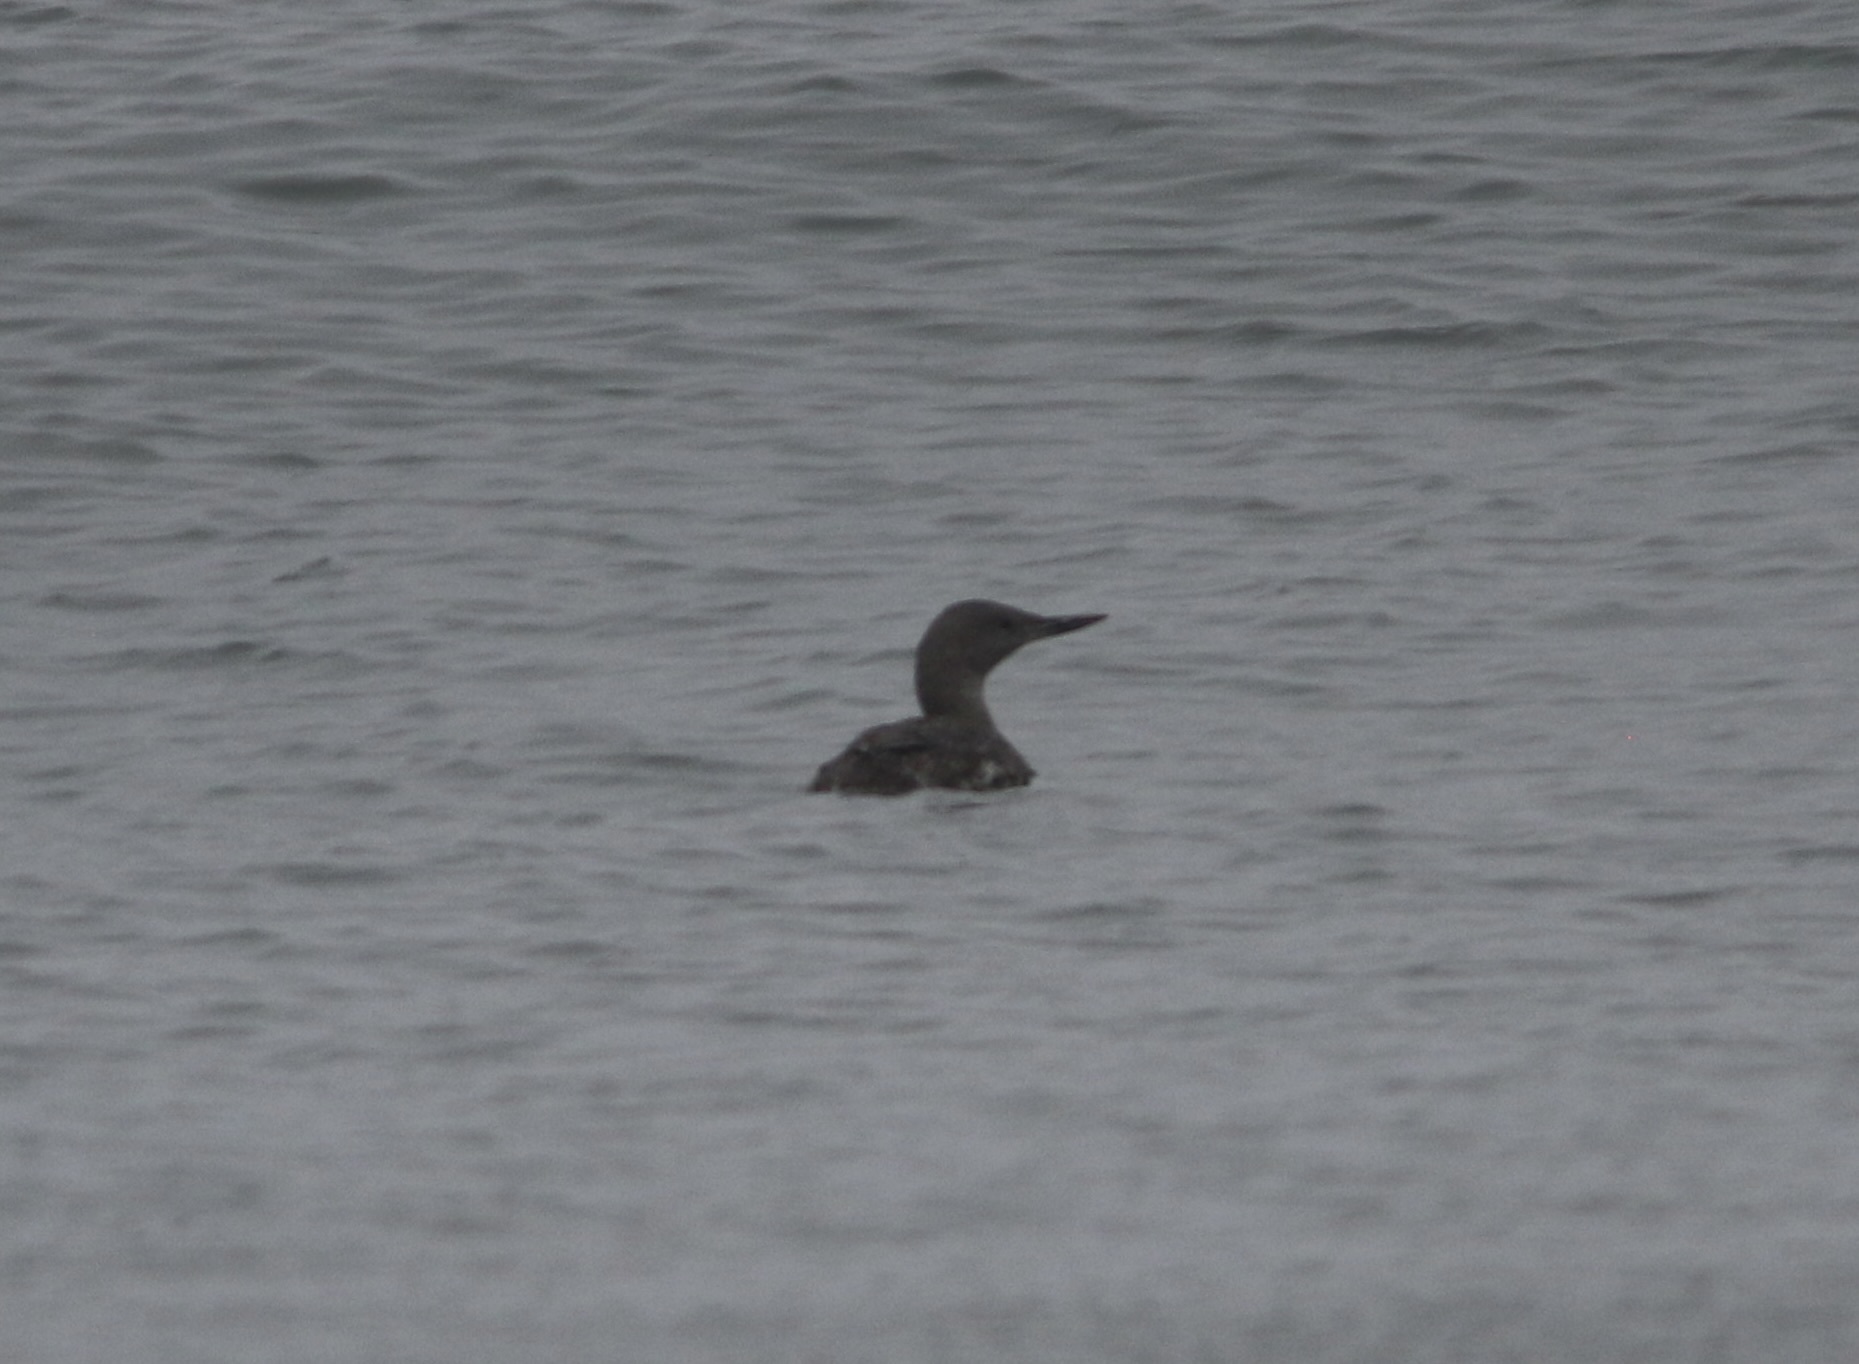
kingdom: Animalia
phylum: Chordata
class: Aves
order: Gaviiformes
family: Gaviidae
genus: Gavia
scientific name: Gavia stellata
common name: Red-throated loon
